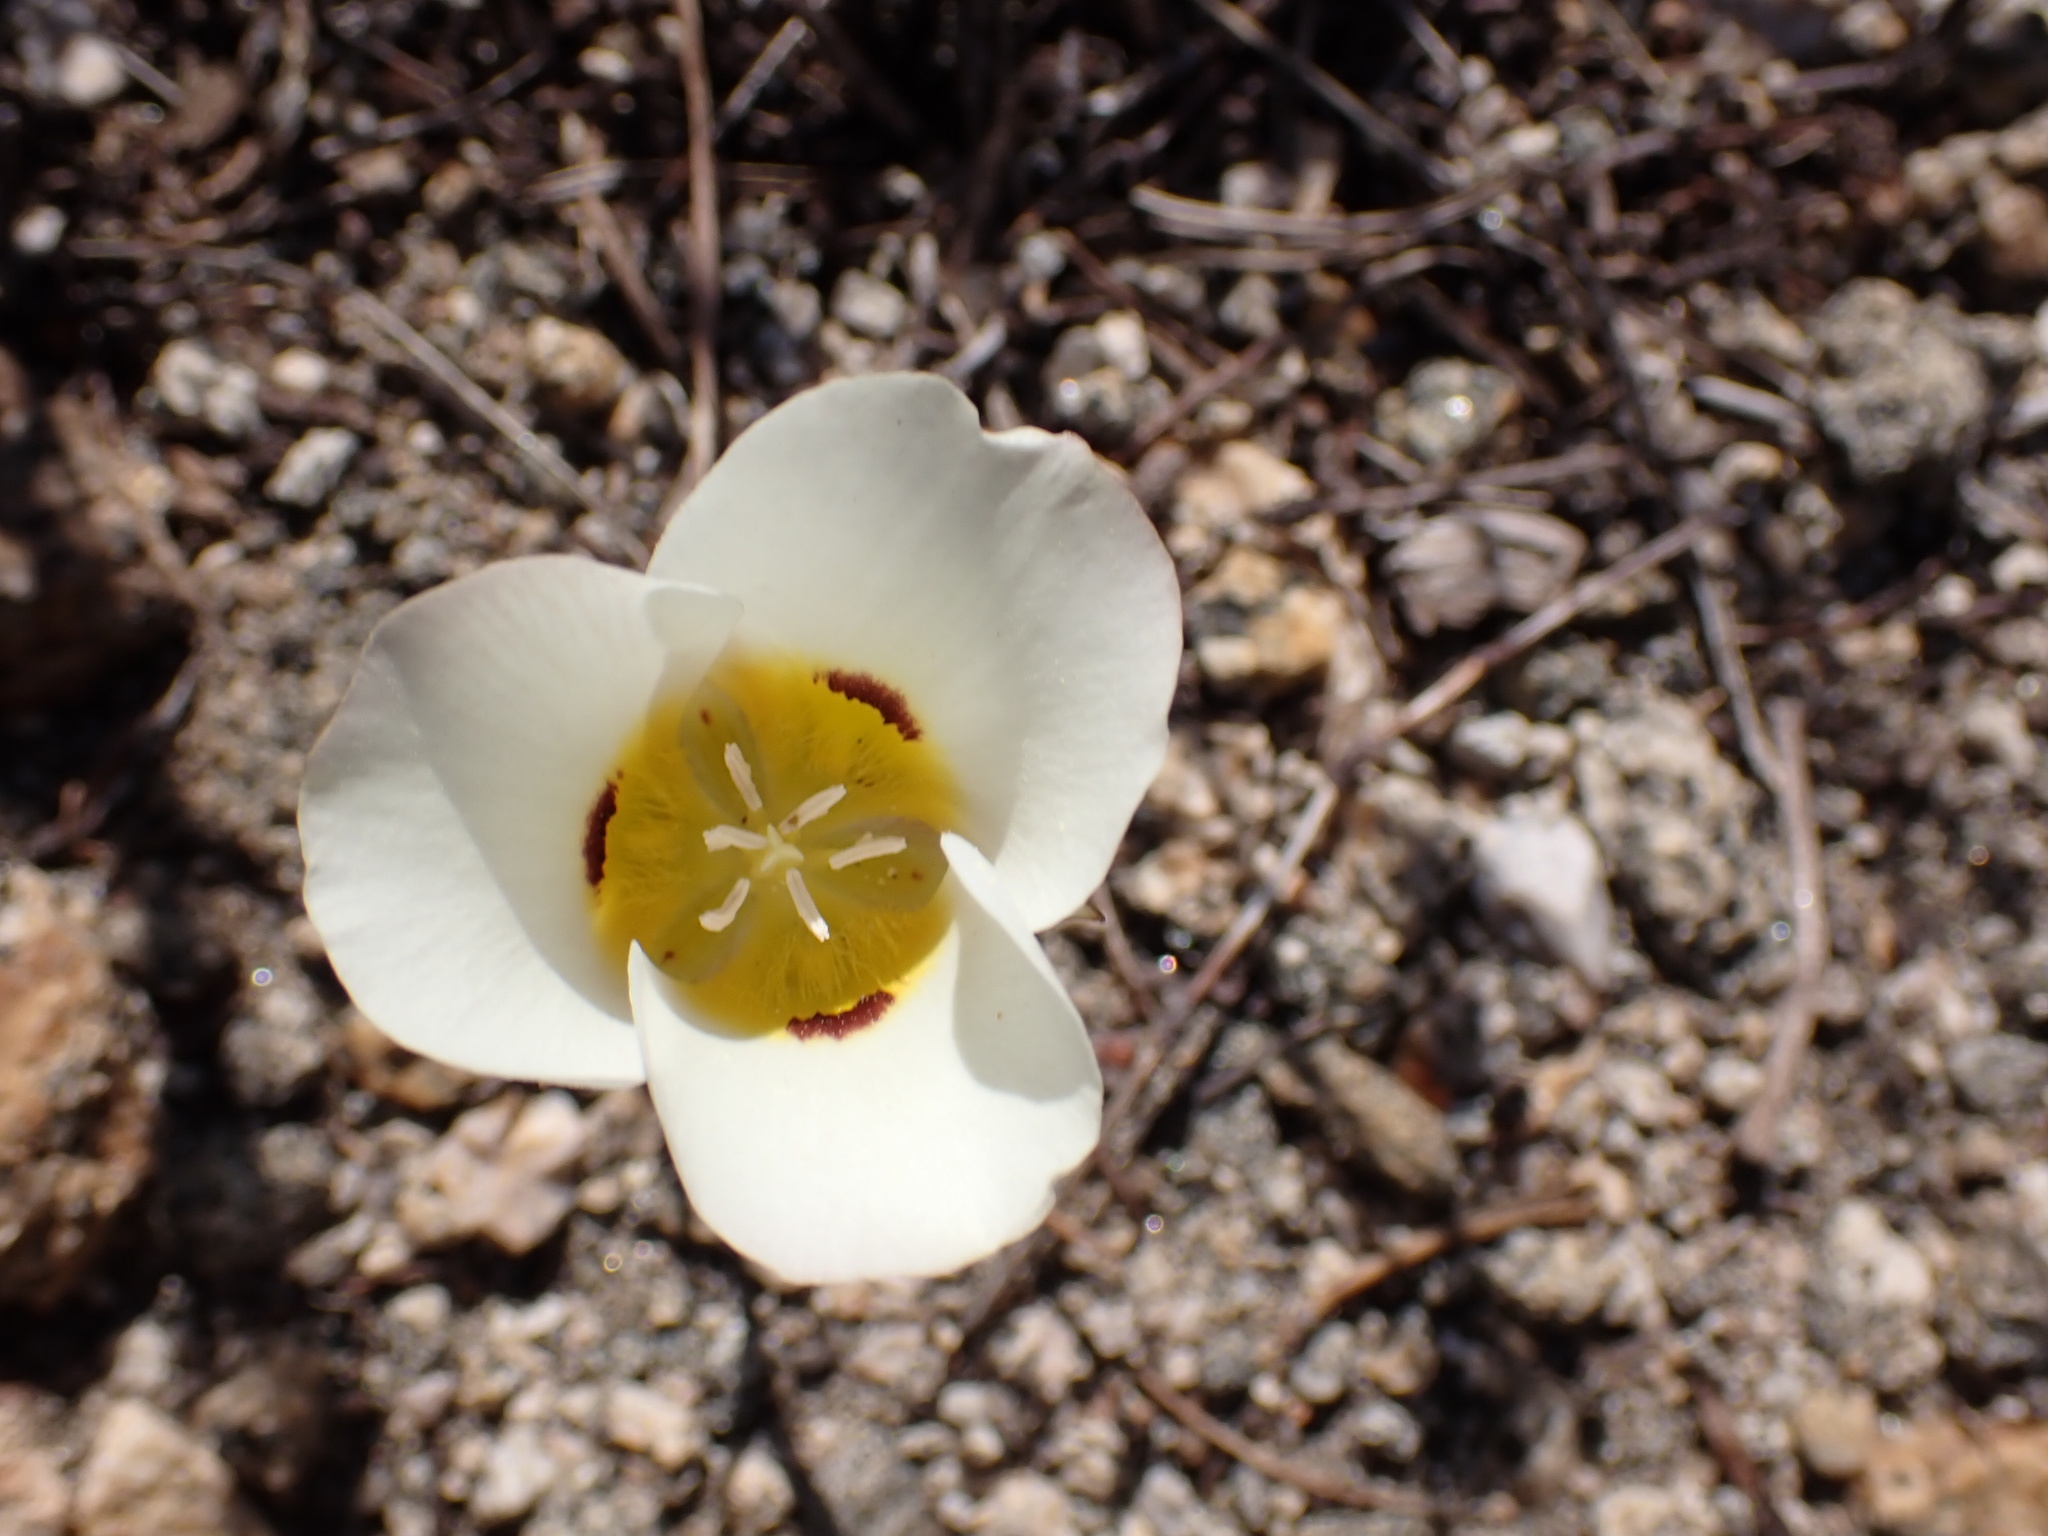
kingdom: Plantae
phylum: Tracheophyta
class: Liliopsida
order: Liliales
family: Liliaceae
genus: Calochortus
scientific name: Calochortus leichtlinii
